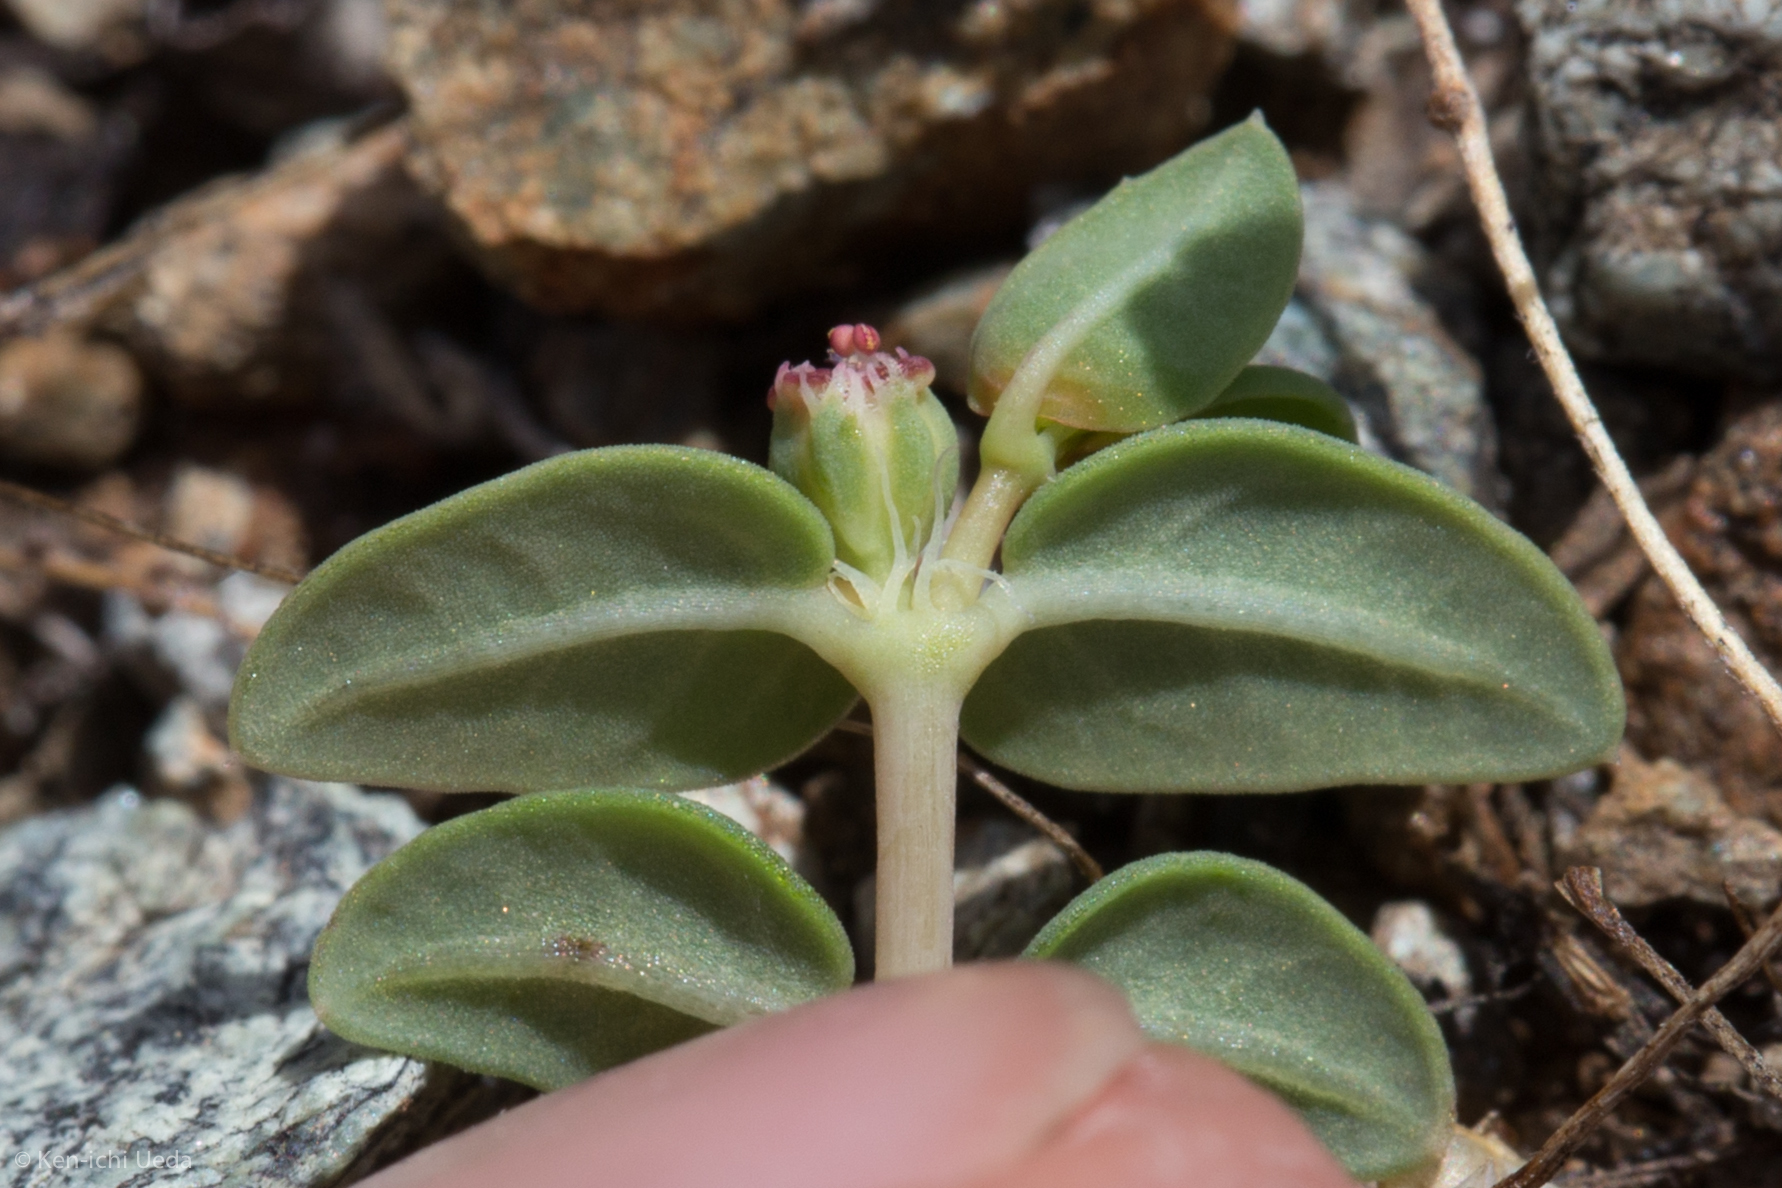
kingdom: Plantae
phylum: Tracheophyta
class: Magnoliopsida
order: Malpighiales
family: Euphorbiaceae
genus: Euphorbia
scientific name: Euphorbia ocellata
